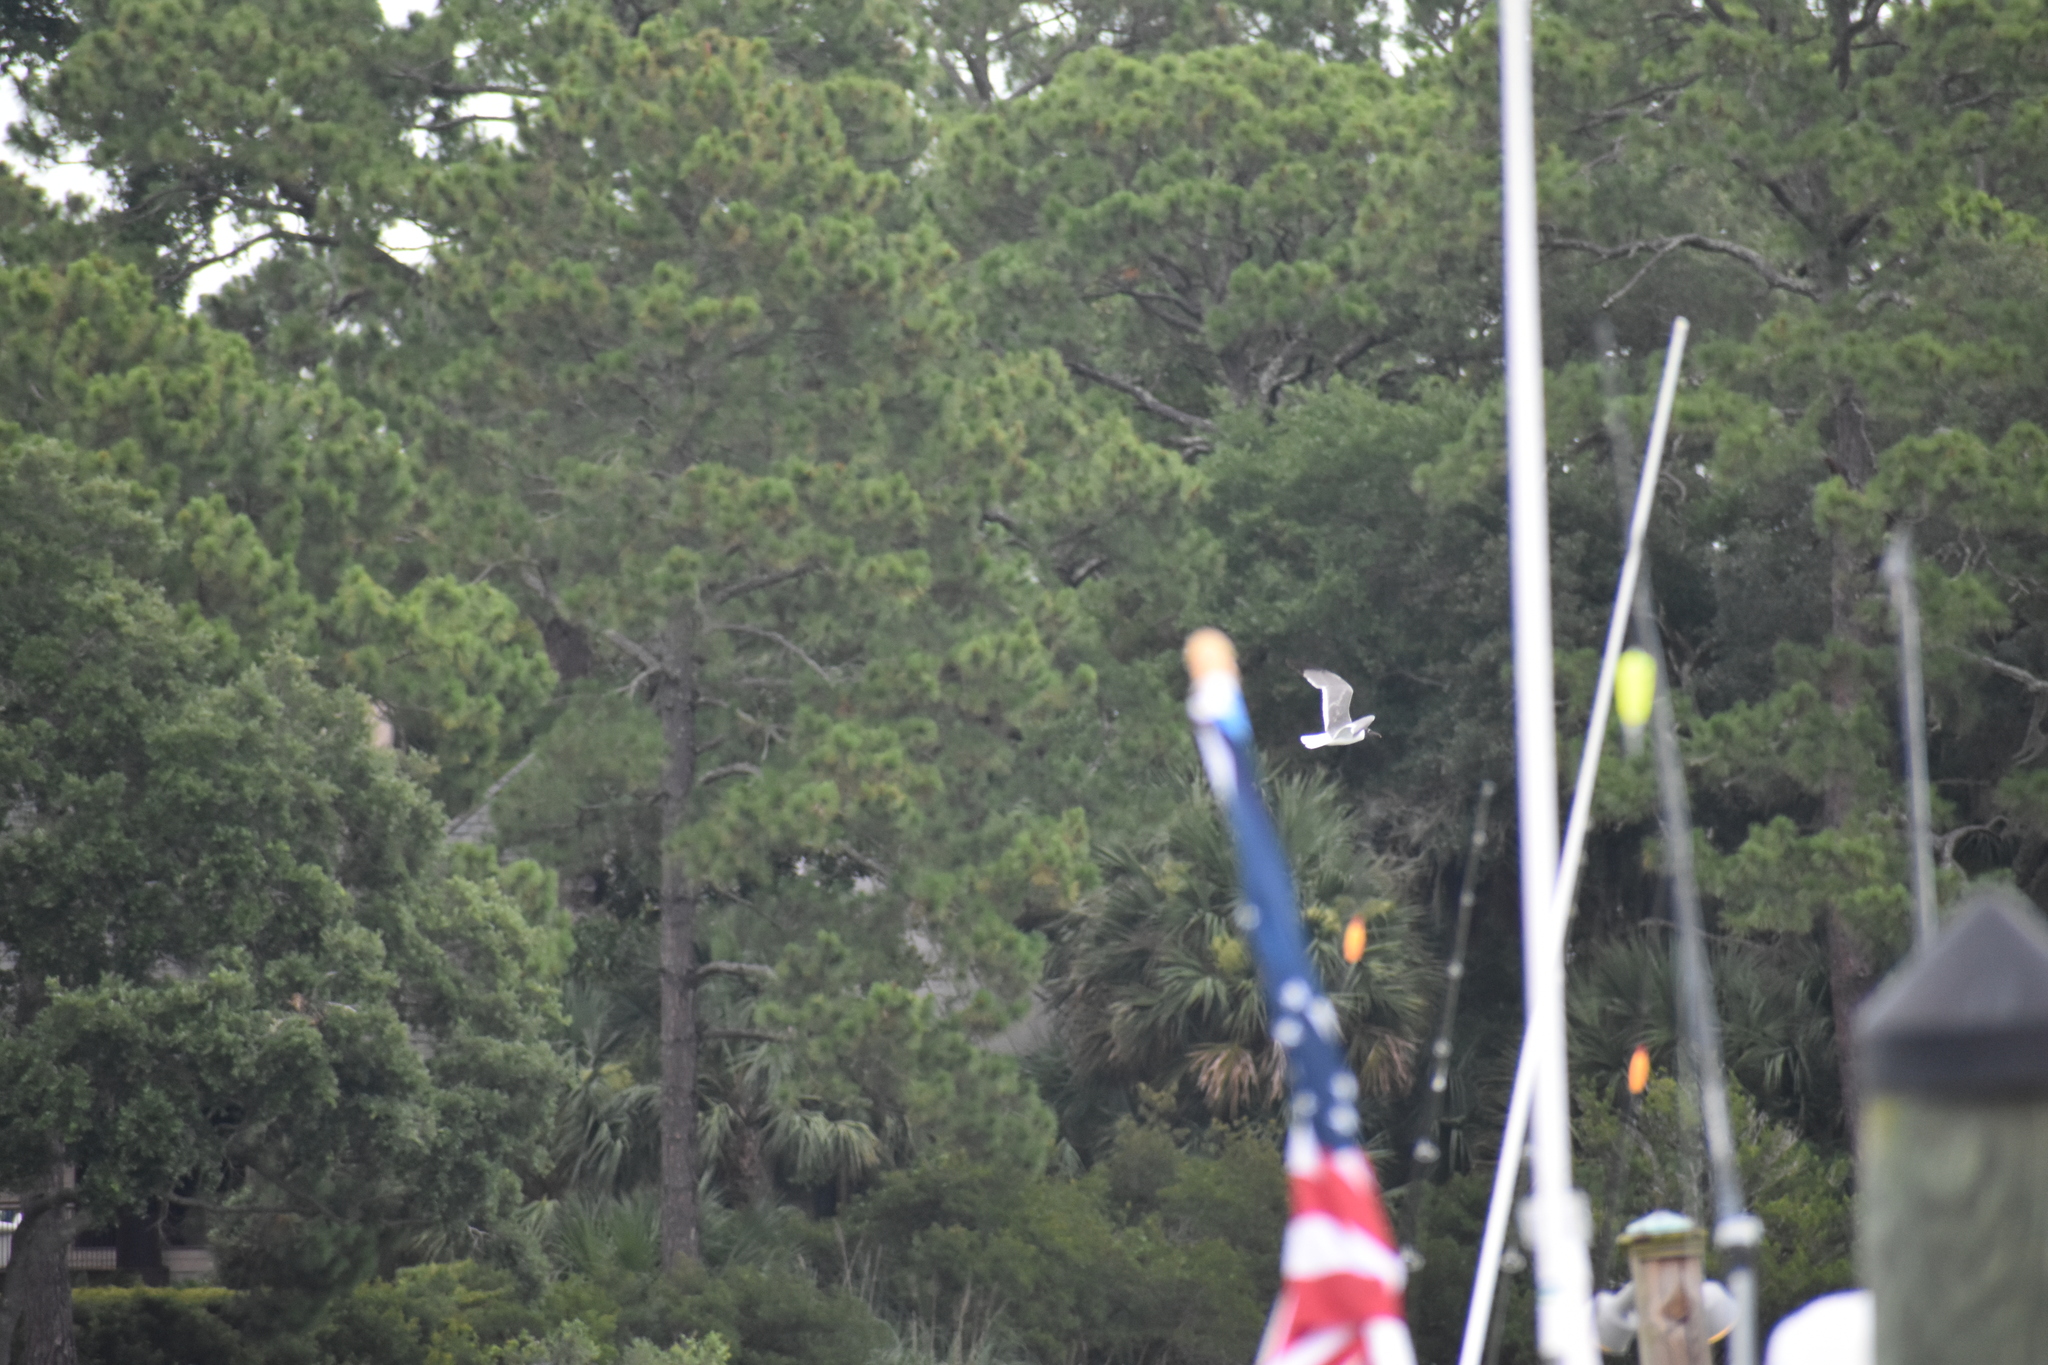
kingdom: Animalia
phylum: Chordata
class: Aves
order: Charadriiformes
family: Laridae
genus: Leucophaeus
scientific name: Leucophaeus atricilla
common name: Laughing gull
